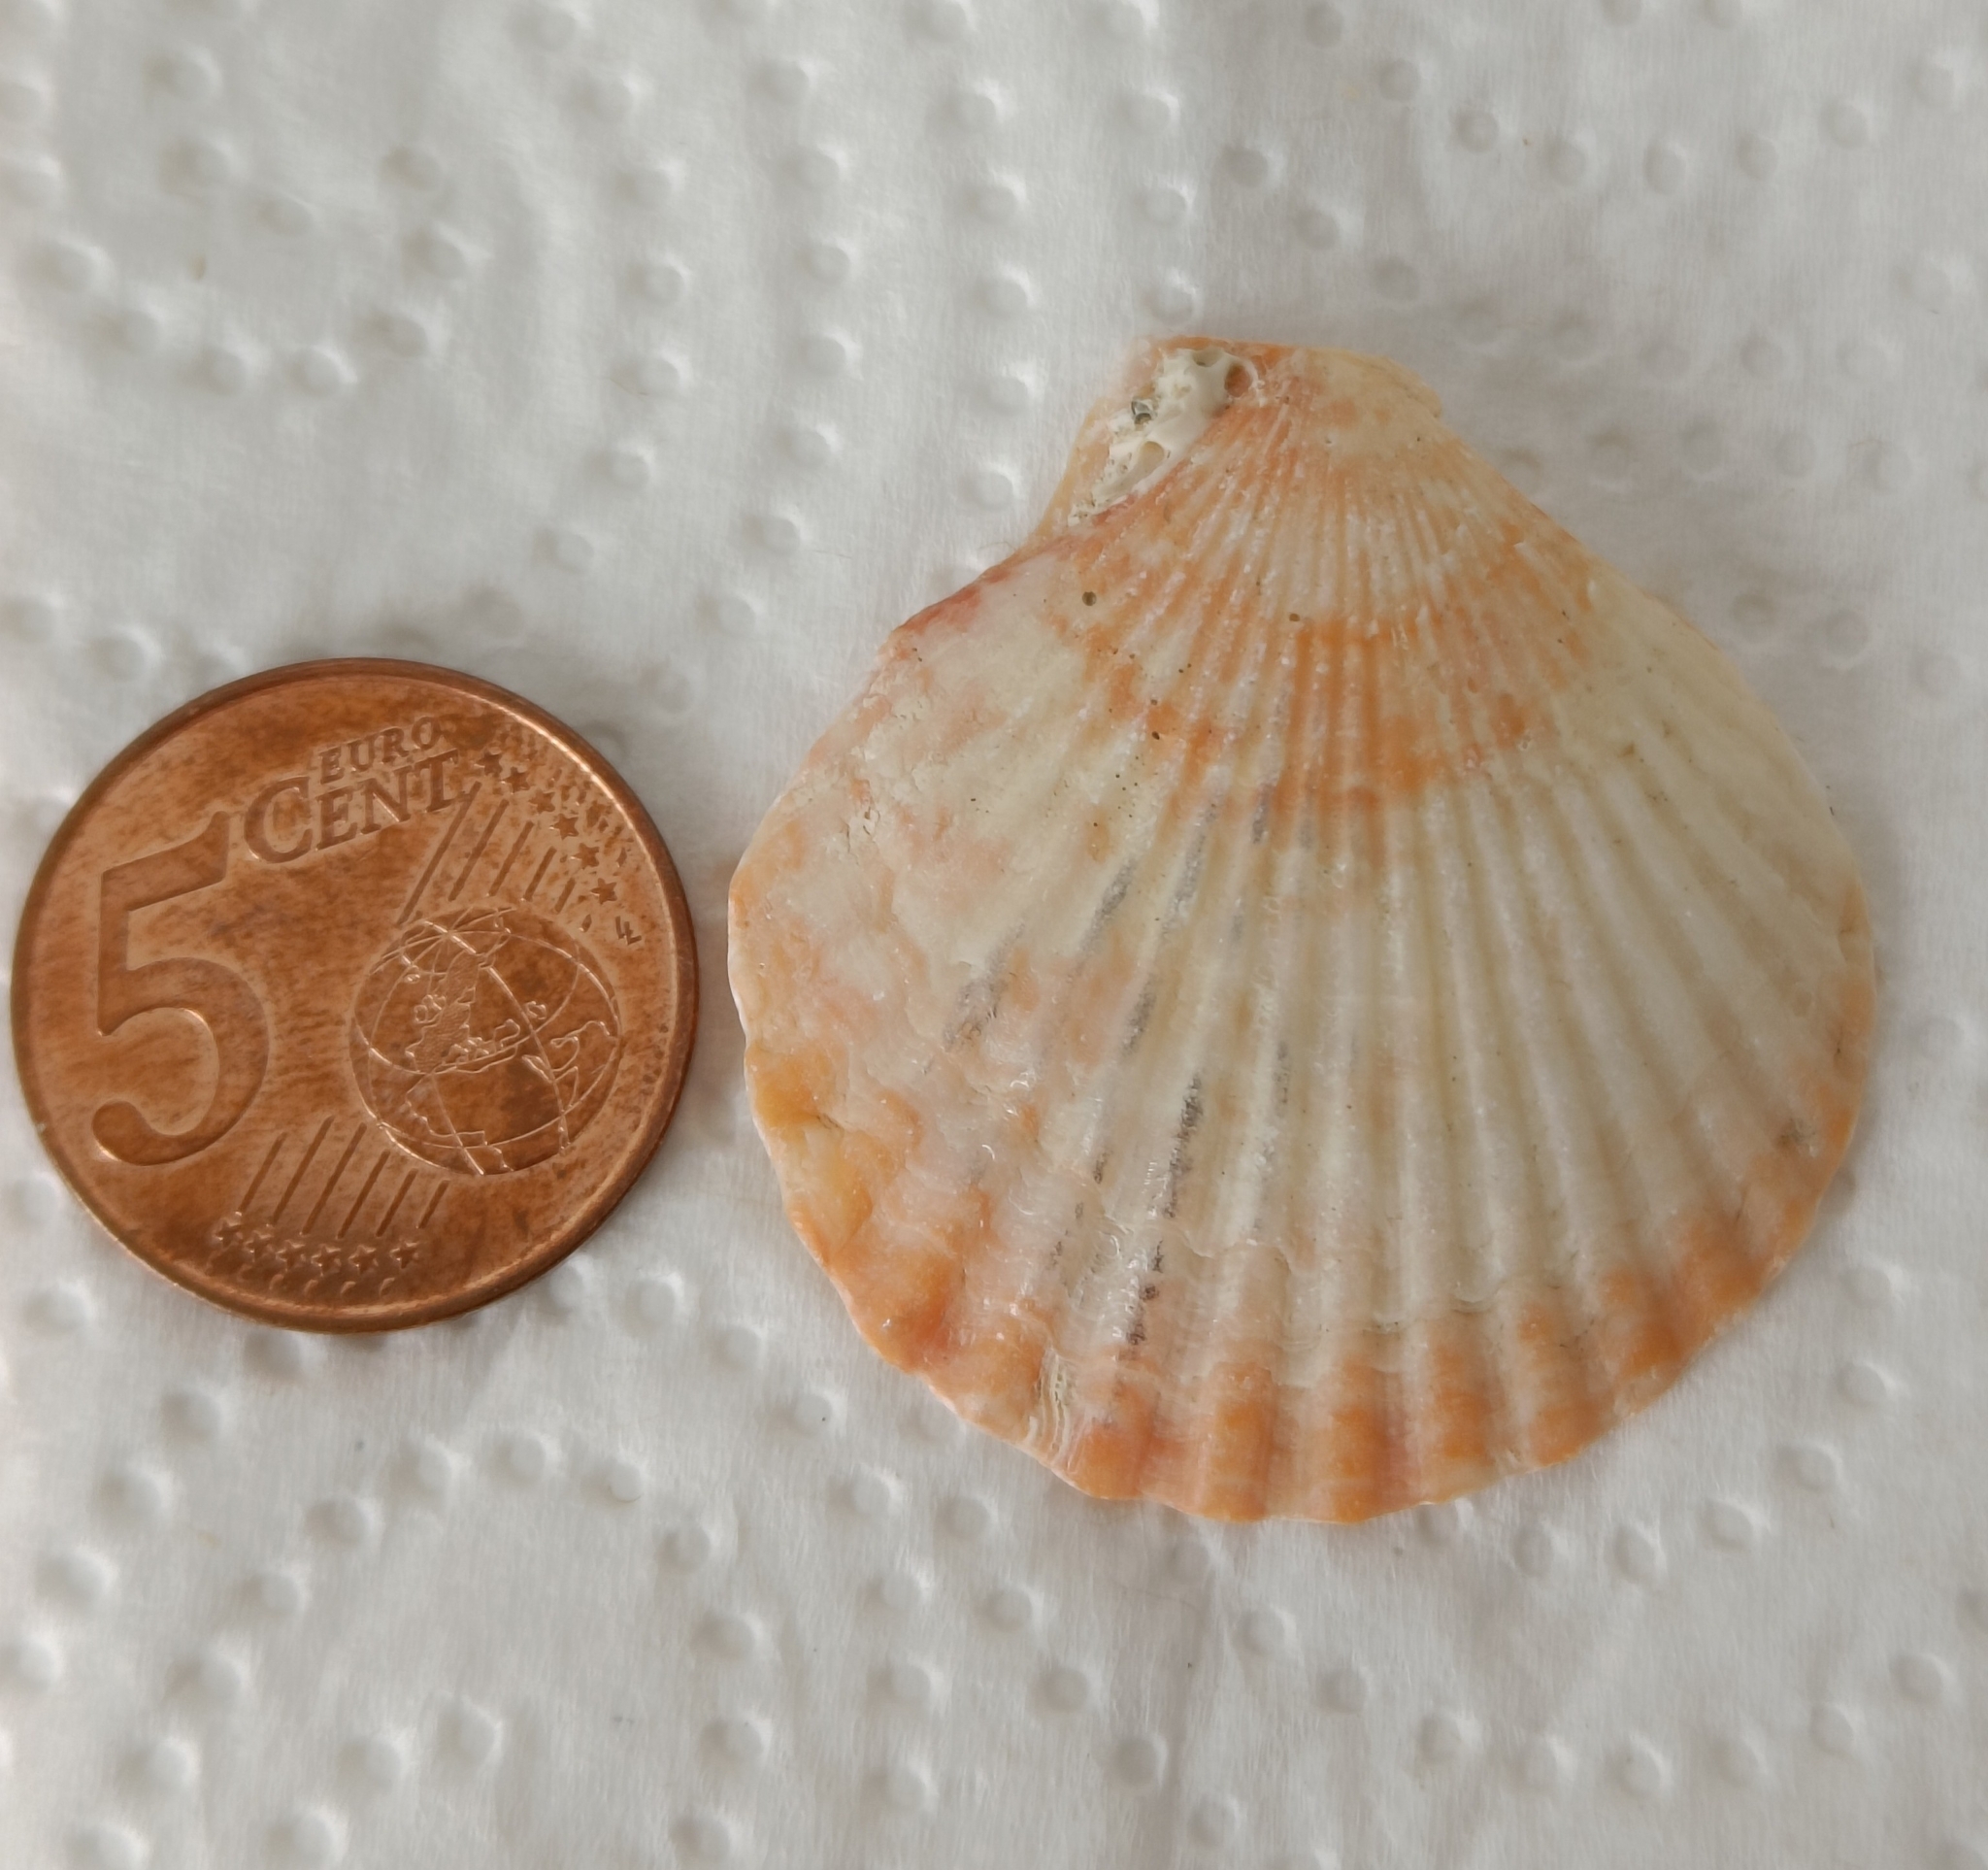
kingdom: Animalia
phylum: Mollusca
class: Bivalvia
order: Pectinida
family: Pectinidae
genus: Aequipecten
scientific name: Aequipecten opercularis
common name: Queen scallop
